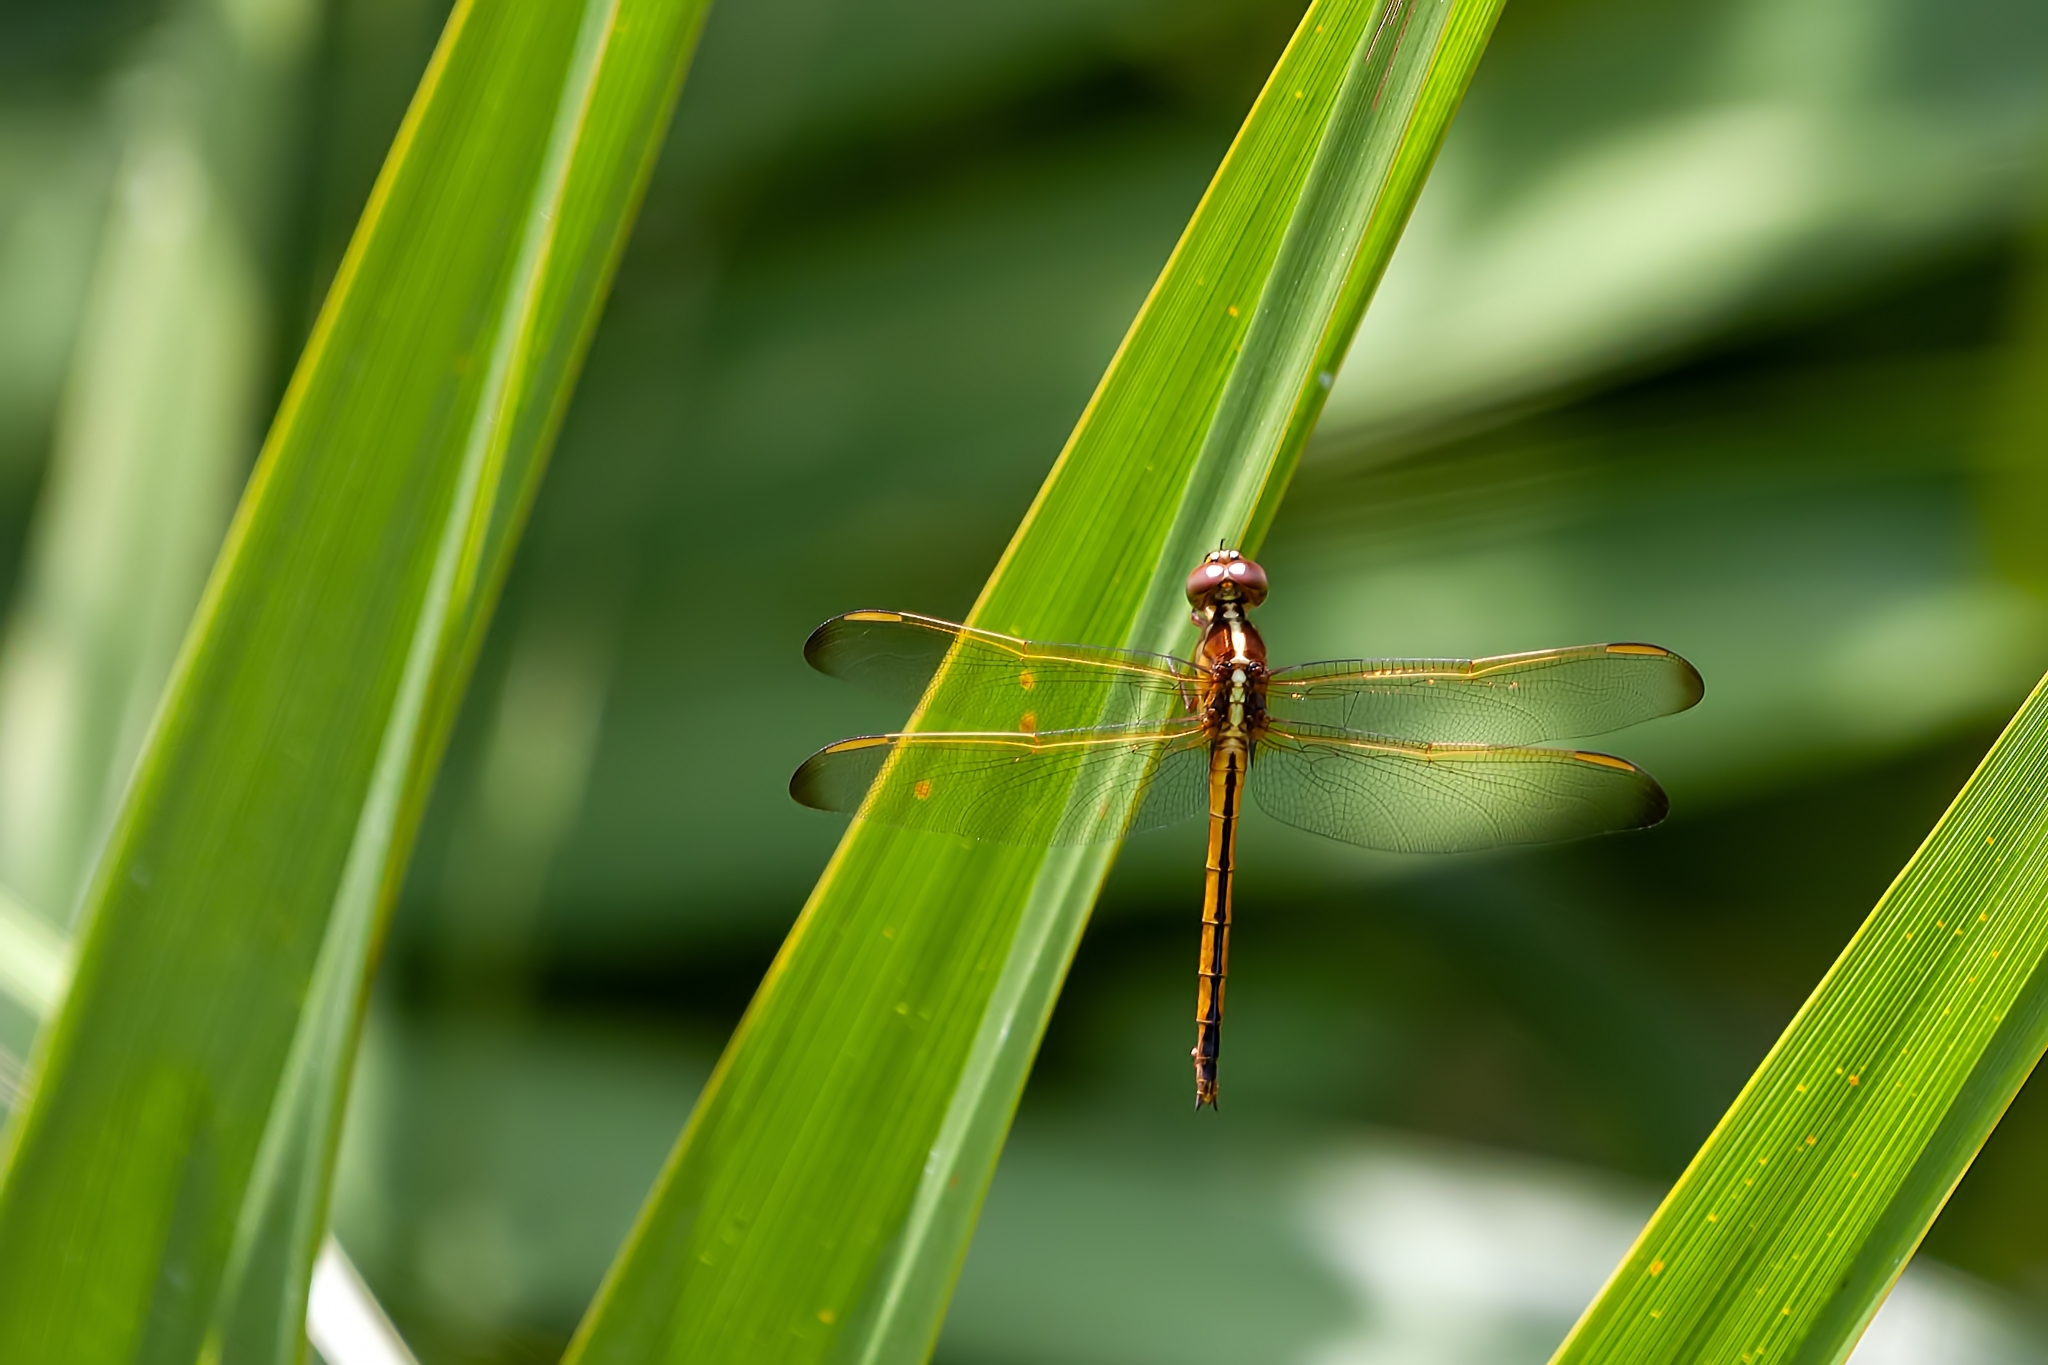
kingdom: Animalia
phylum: Arthropoda
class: Insecta
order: Odonata
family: Libellulidae
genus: Libellula
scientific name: Libellula needhami
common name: Needham's skimmer
